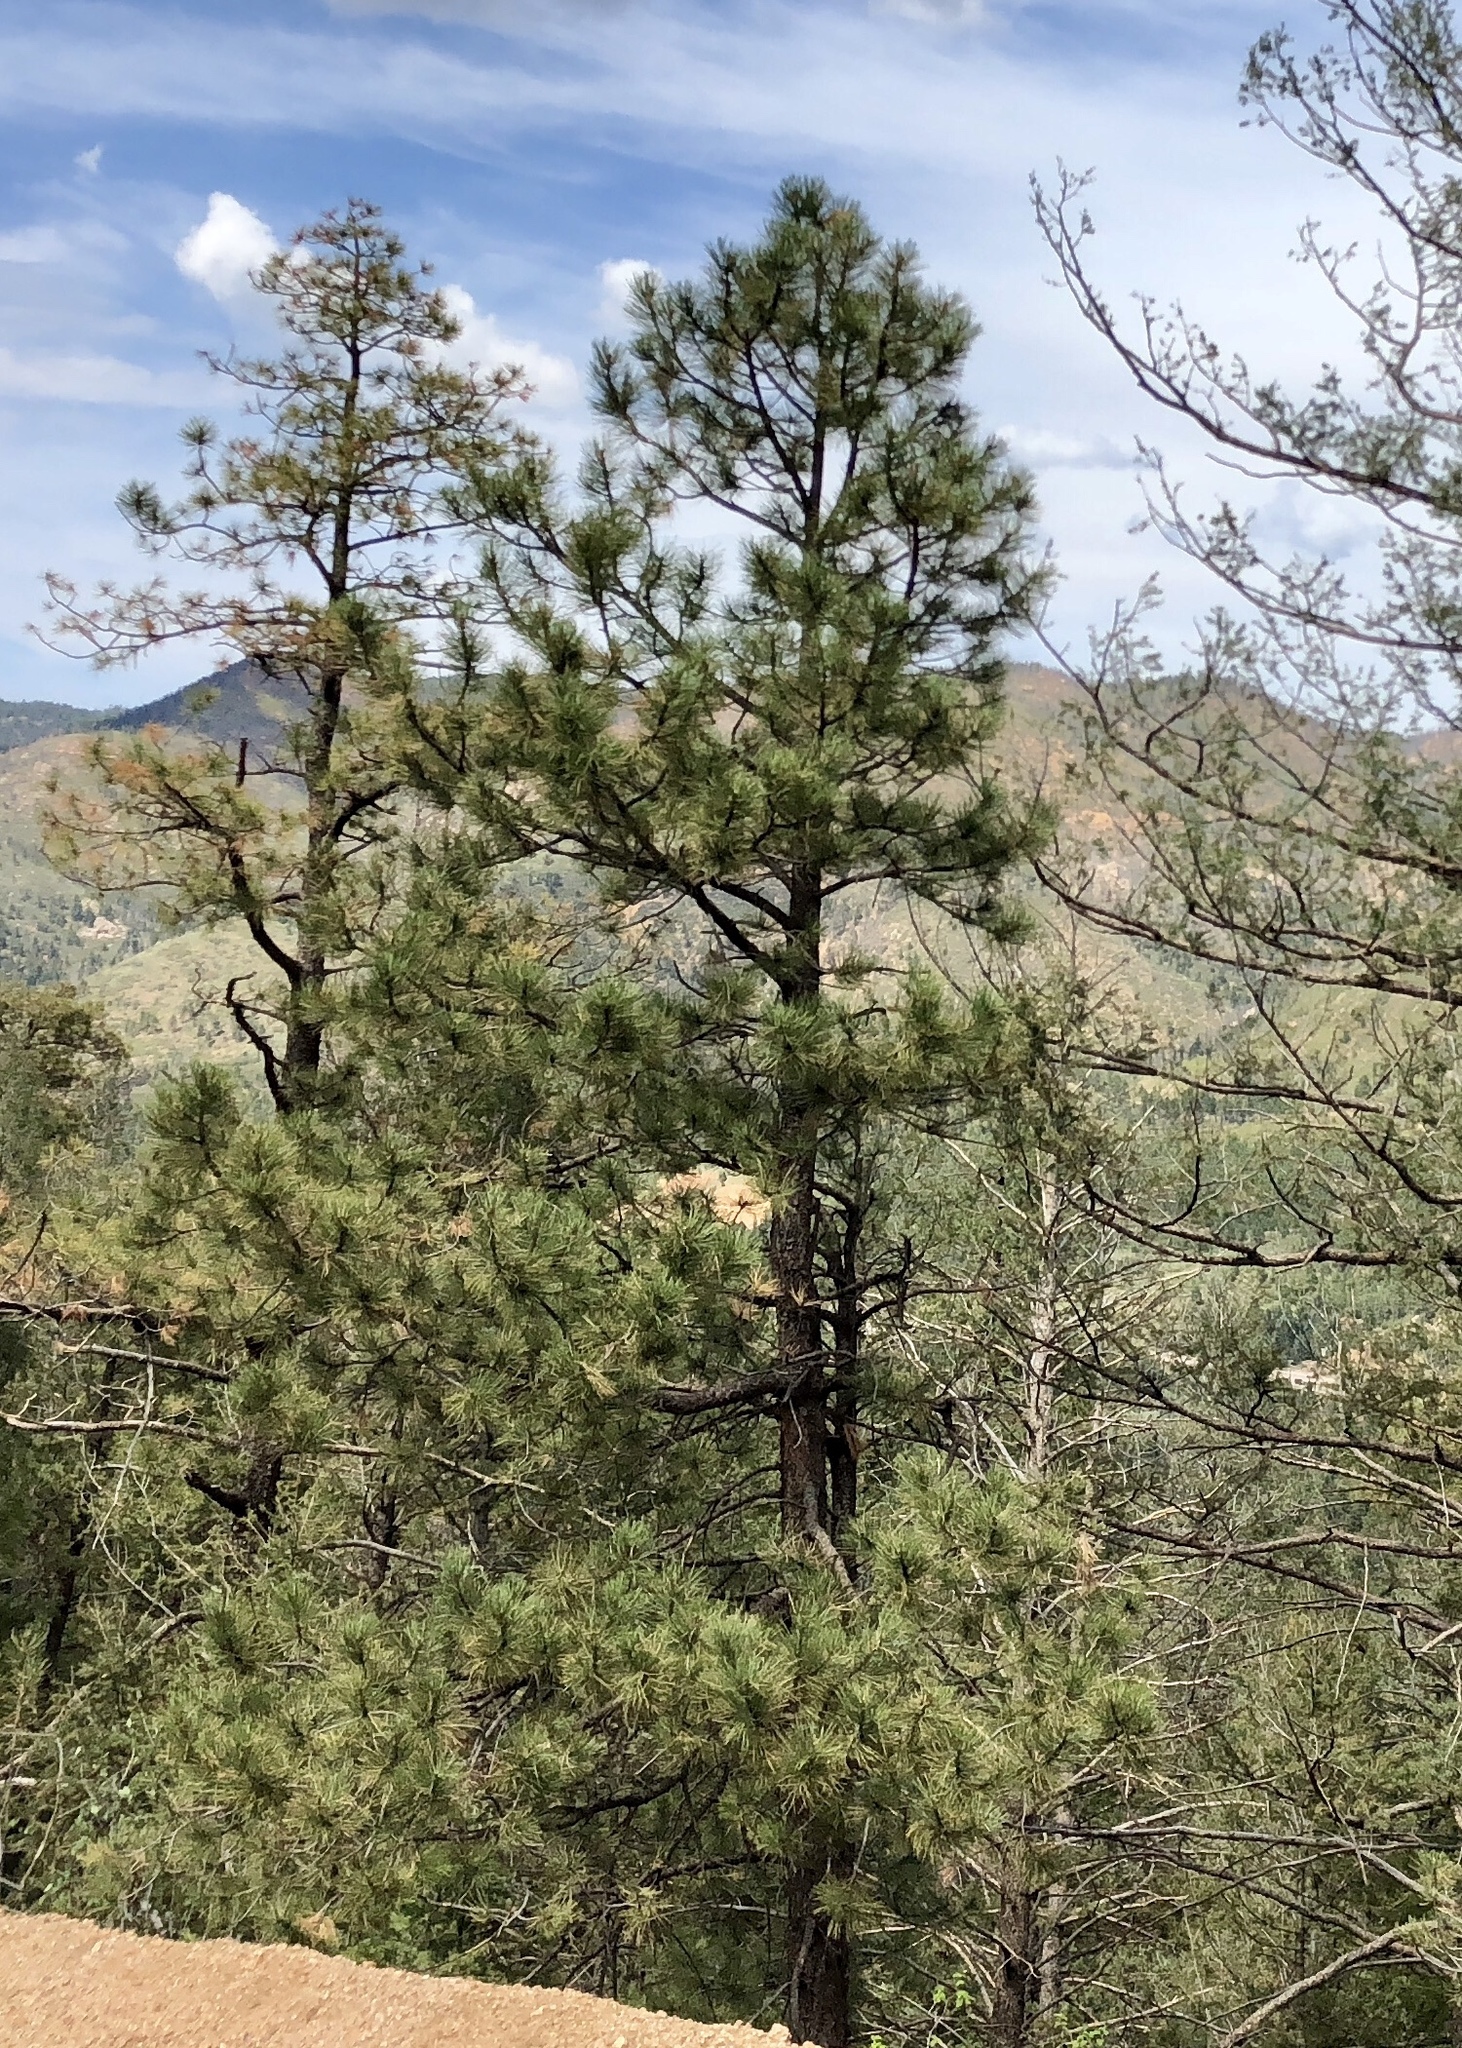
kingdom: Plantae
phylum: Tracheophyta
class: Pinopsida
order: Pinales
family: Pinaceae
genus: Pinus
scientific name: Pinus ponderosa
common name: Western yellow-pine
